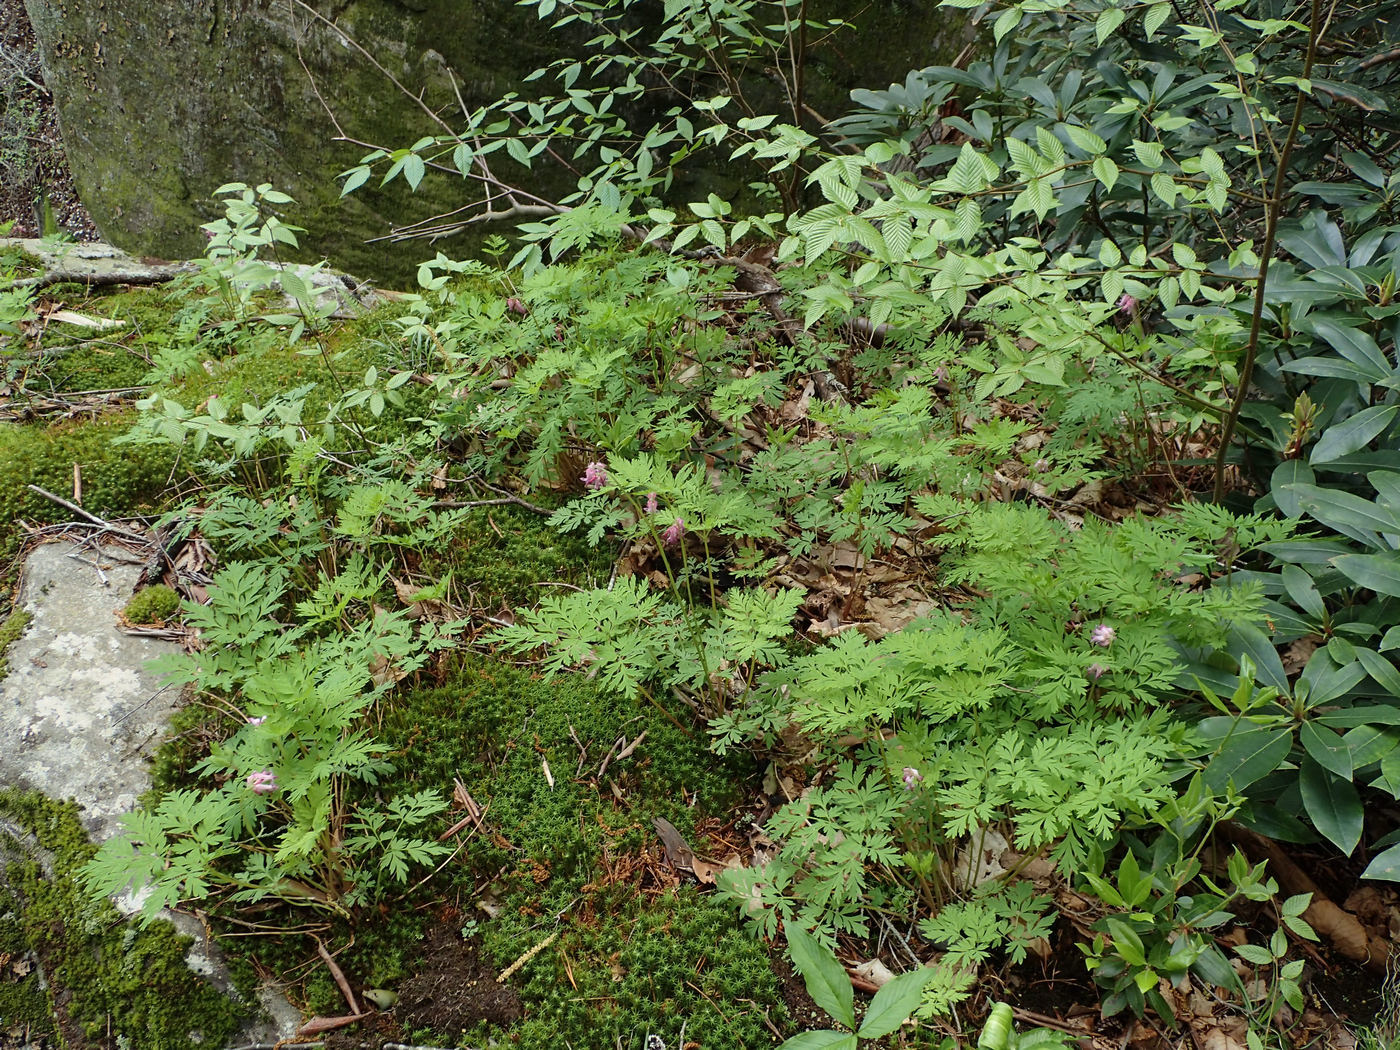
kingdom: Plantae
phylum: Tracheophyta
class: Magnoliopsida
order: Ranunculales
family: Papaveraceae
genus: Dicentra
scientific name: Dicentra eximia
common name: Turkey-corn
